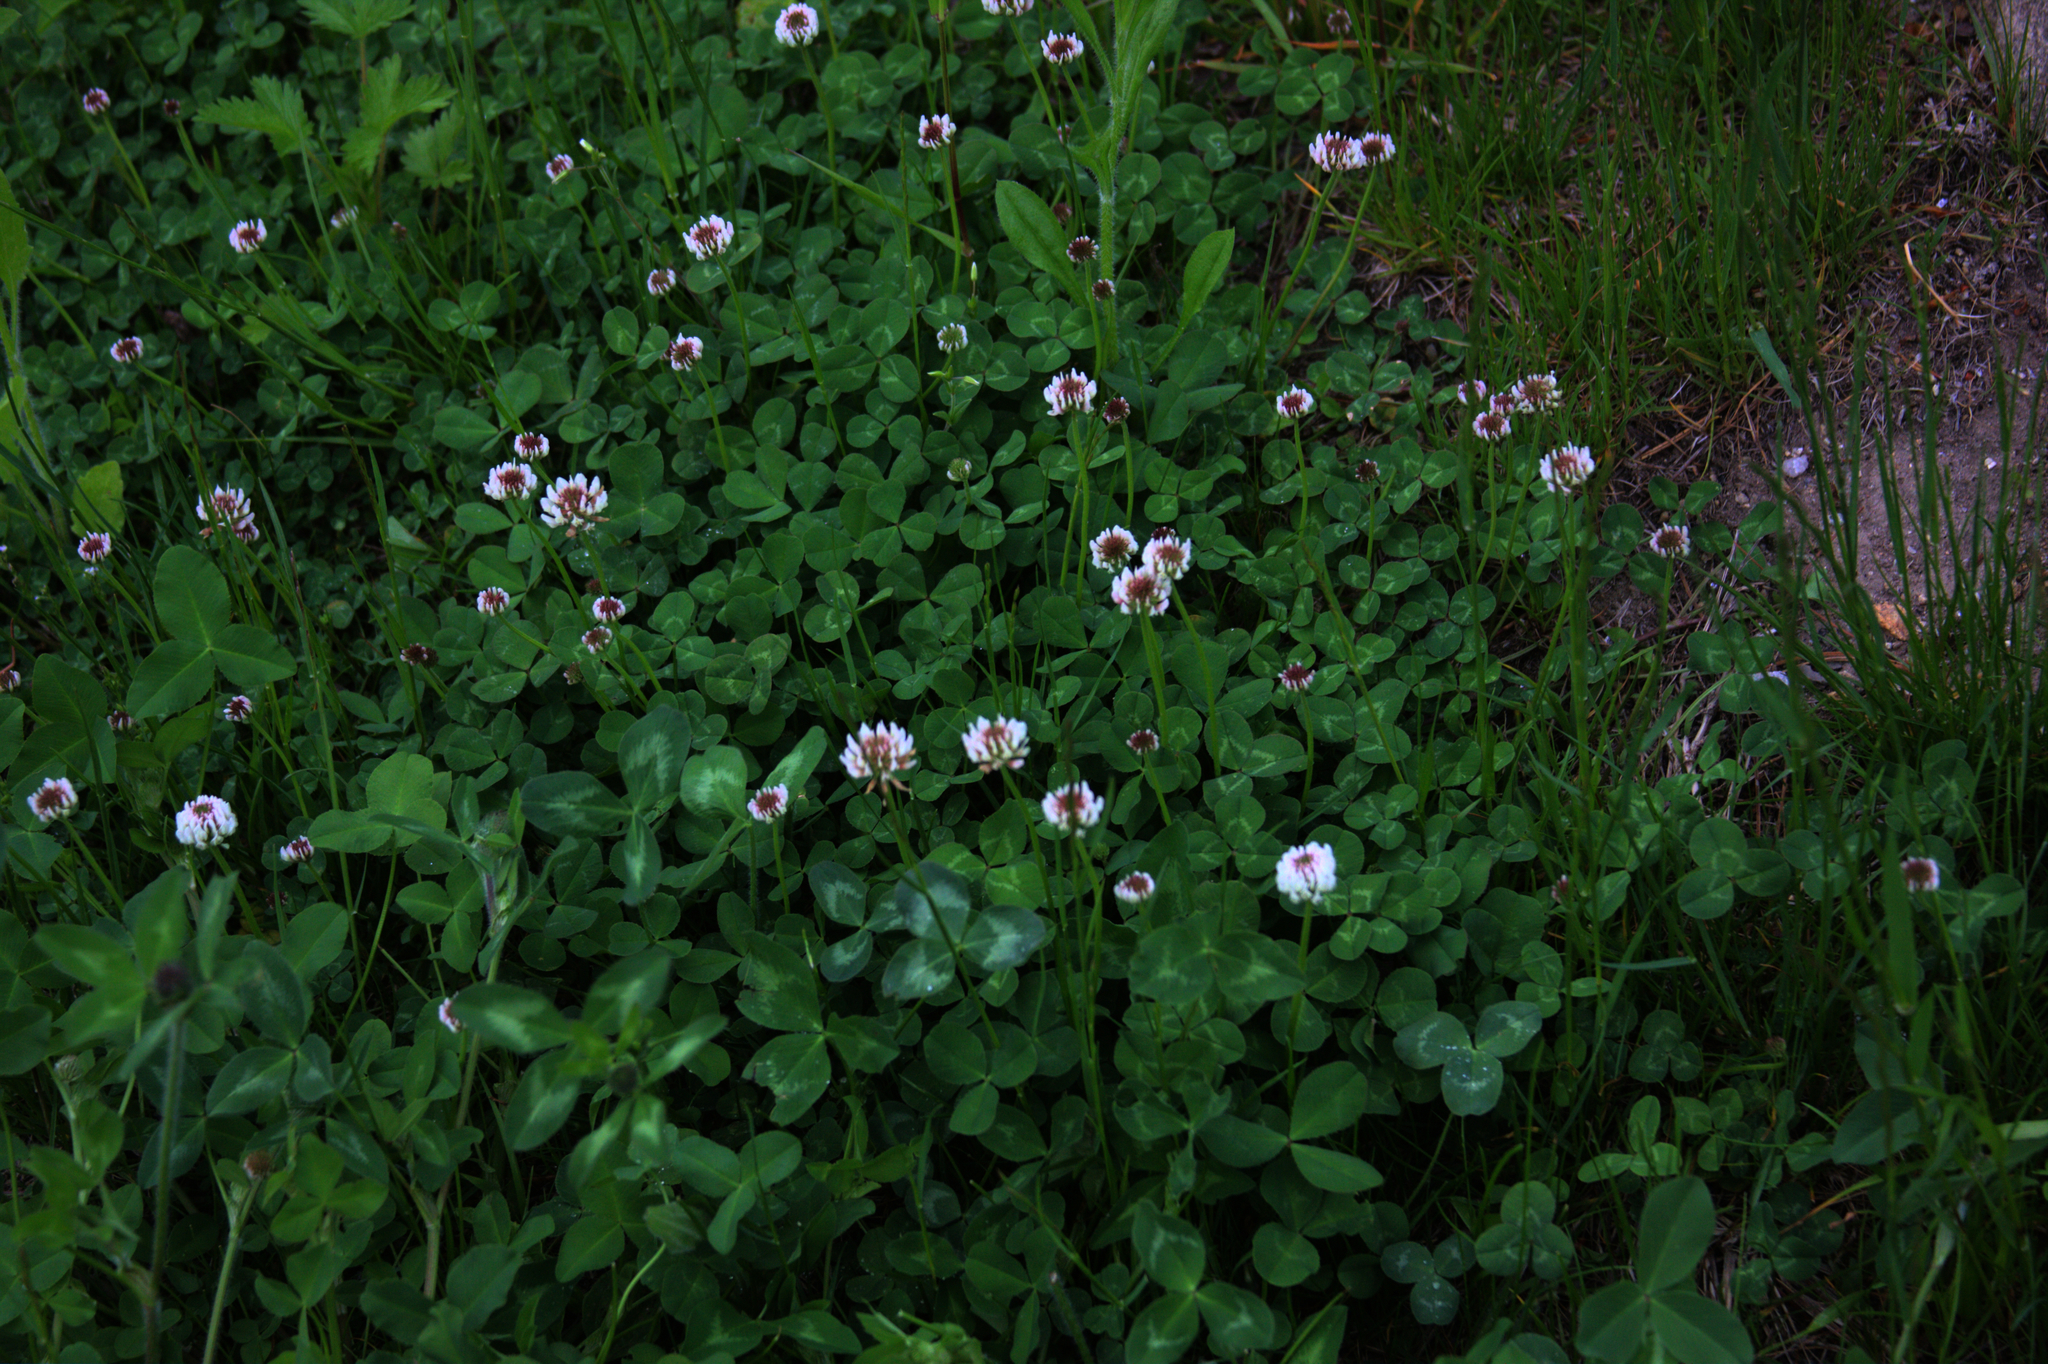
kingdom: Plantae
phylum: Tracheophyta
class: Magnoliopsida
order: Fabales
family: Fabaceae
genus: Trifolium
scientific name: Trifolium repens
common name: White clover
